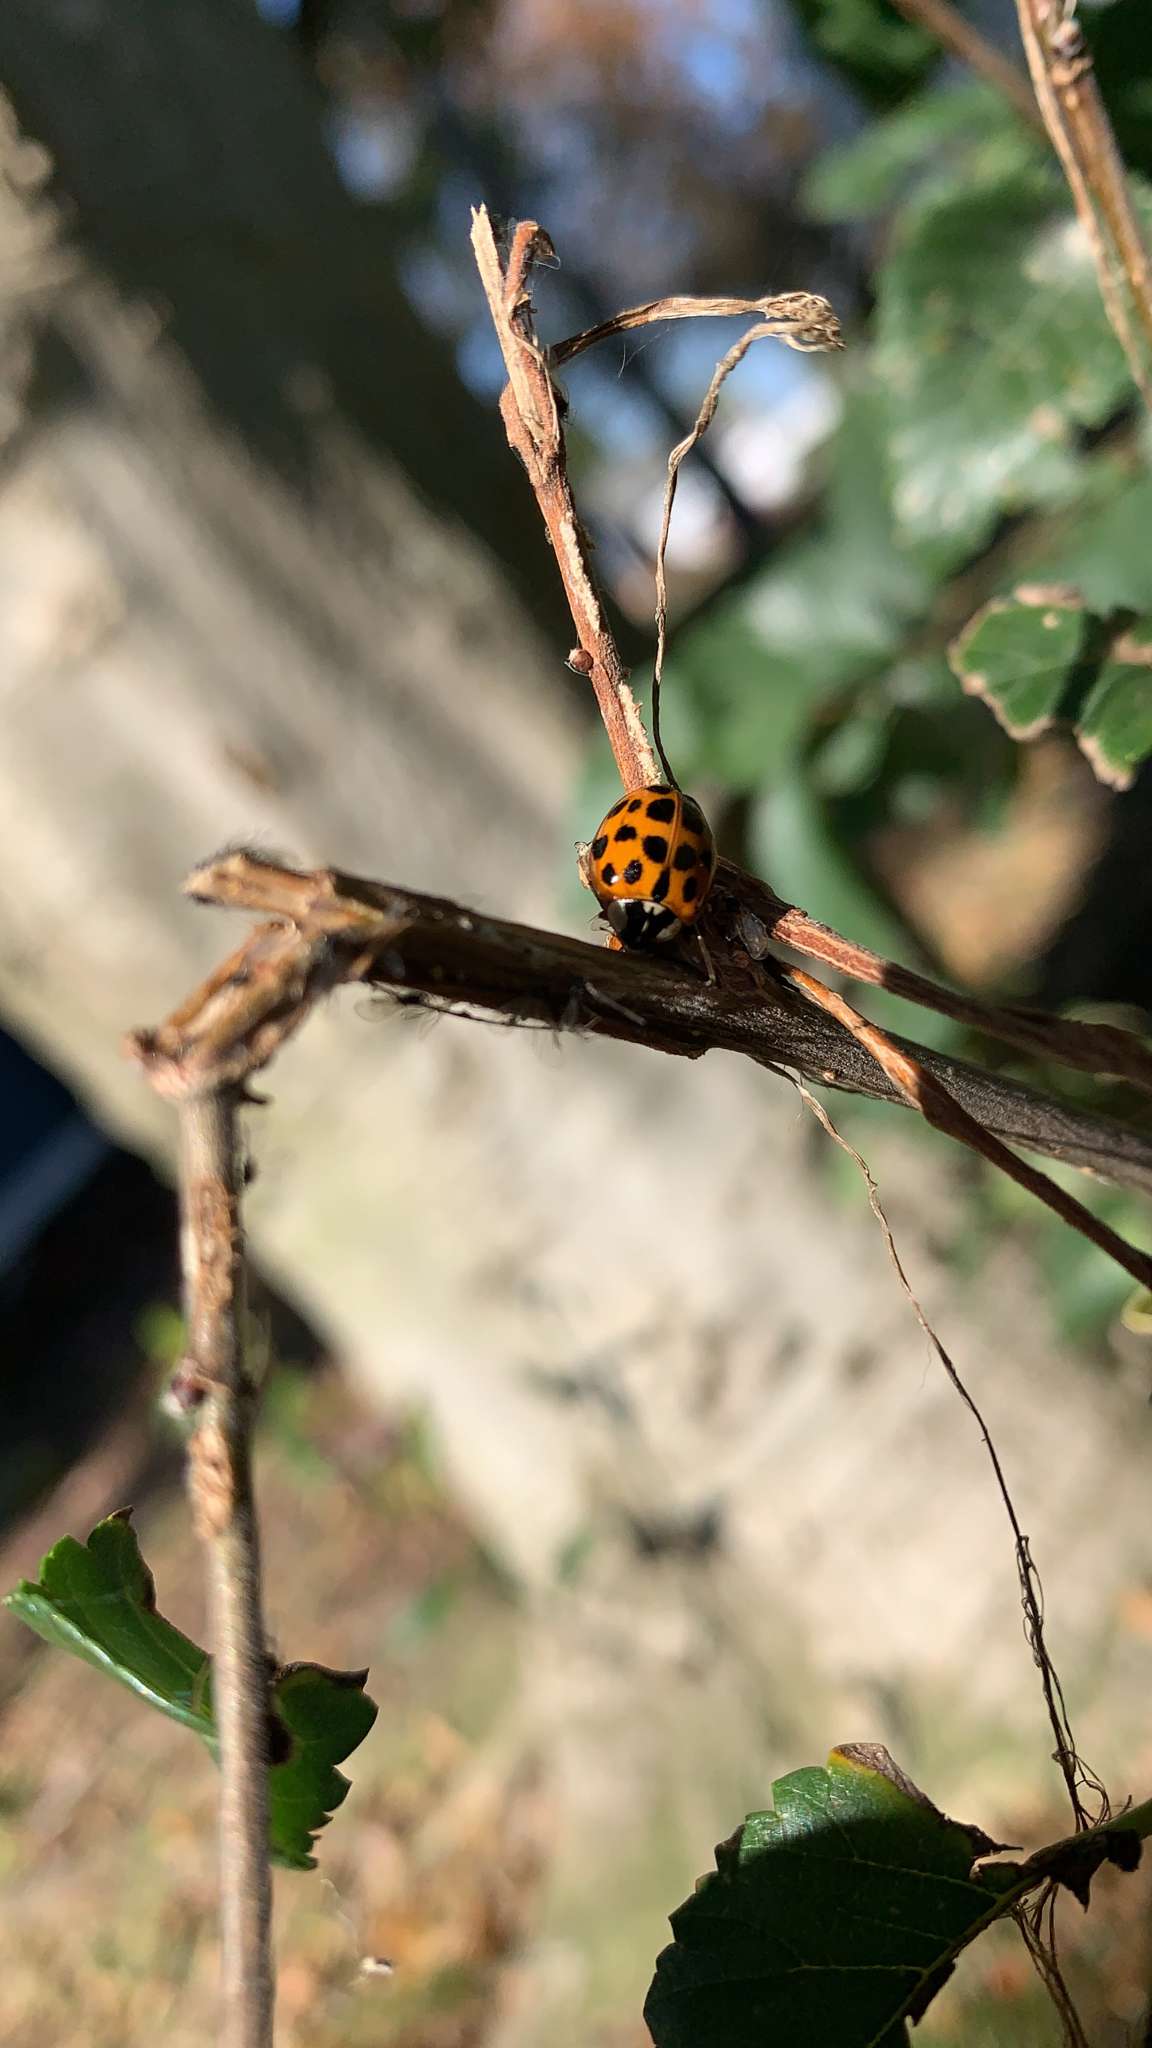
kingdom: Animalia
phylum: Arthropoda
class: Insecta
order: Coleoptera
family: Coccinellidae
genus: Harmonia
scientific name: Harmonia axyridis
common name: Harlequin ladybird
